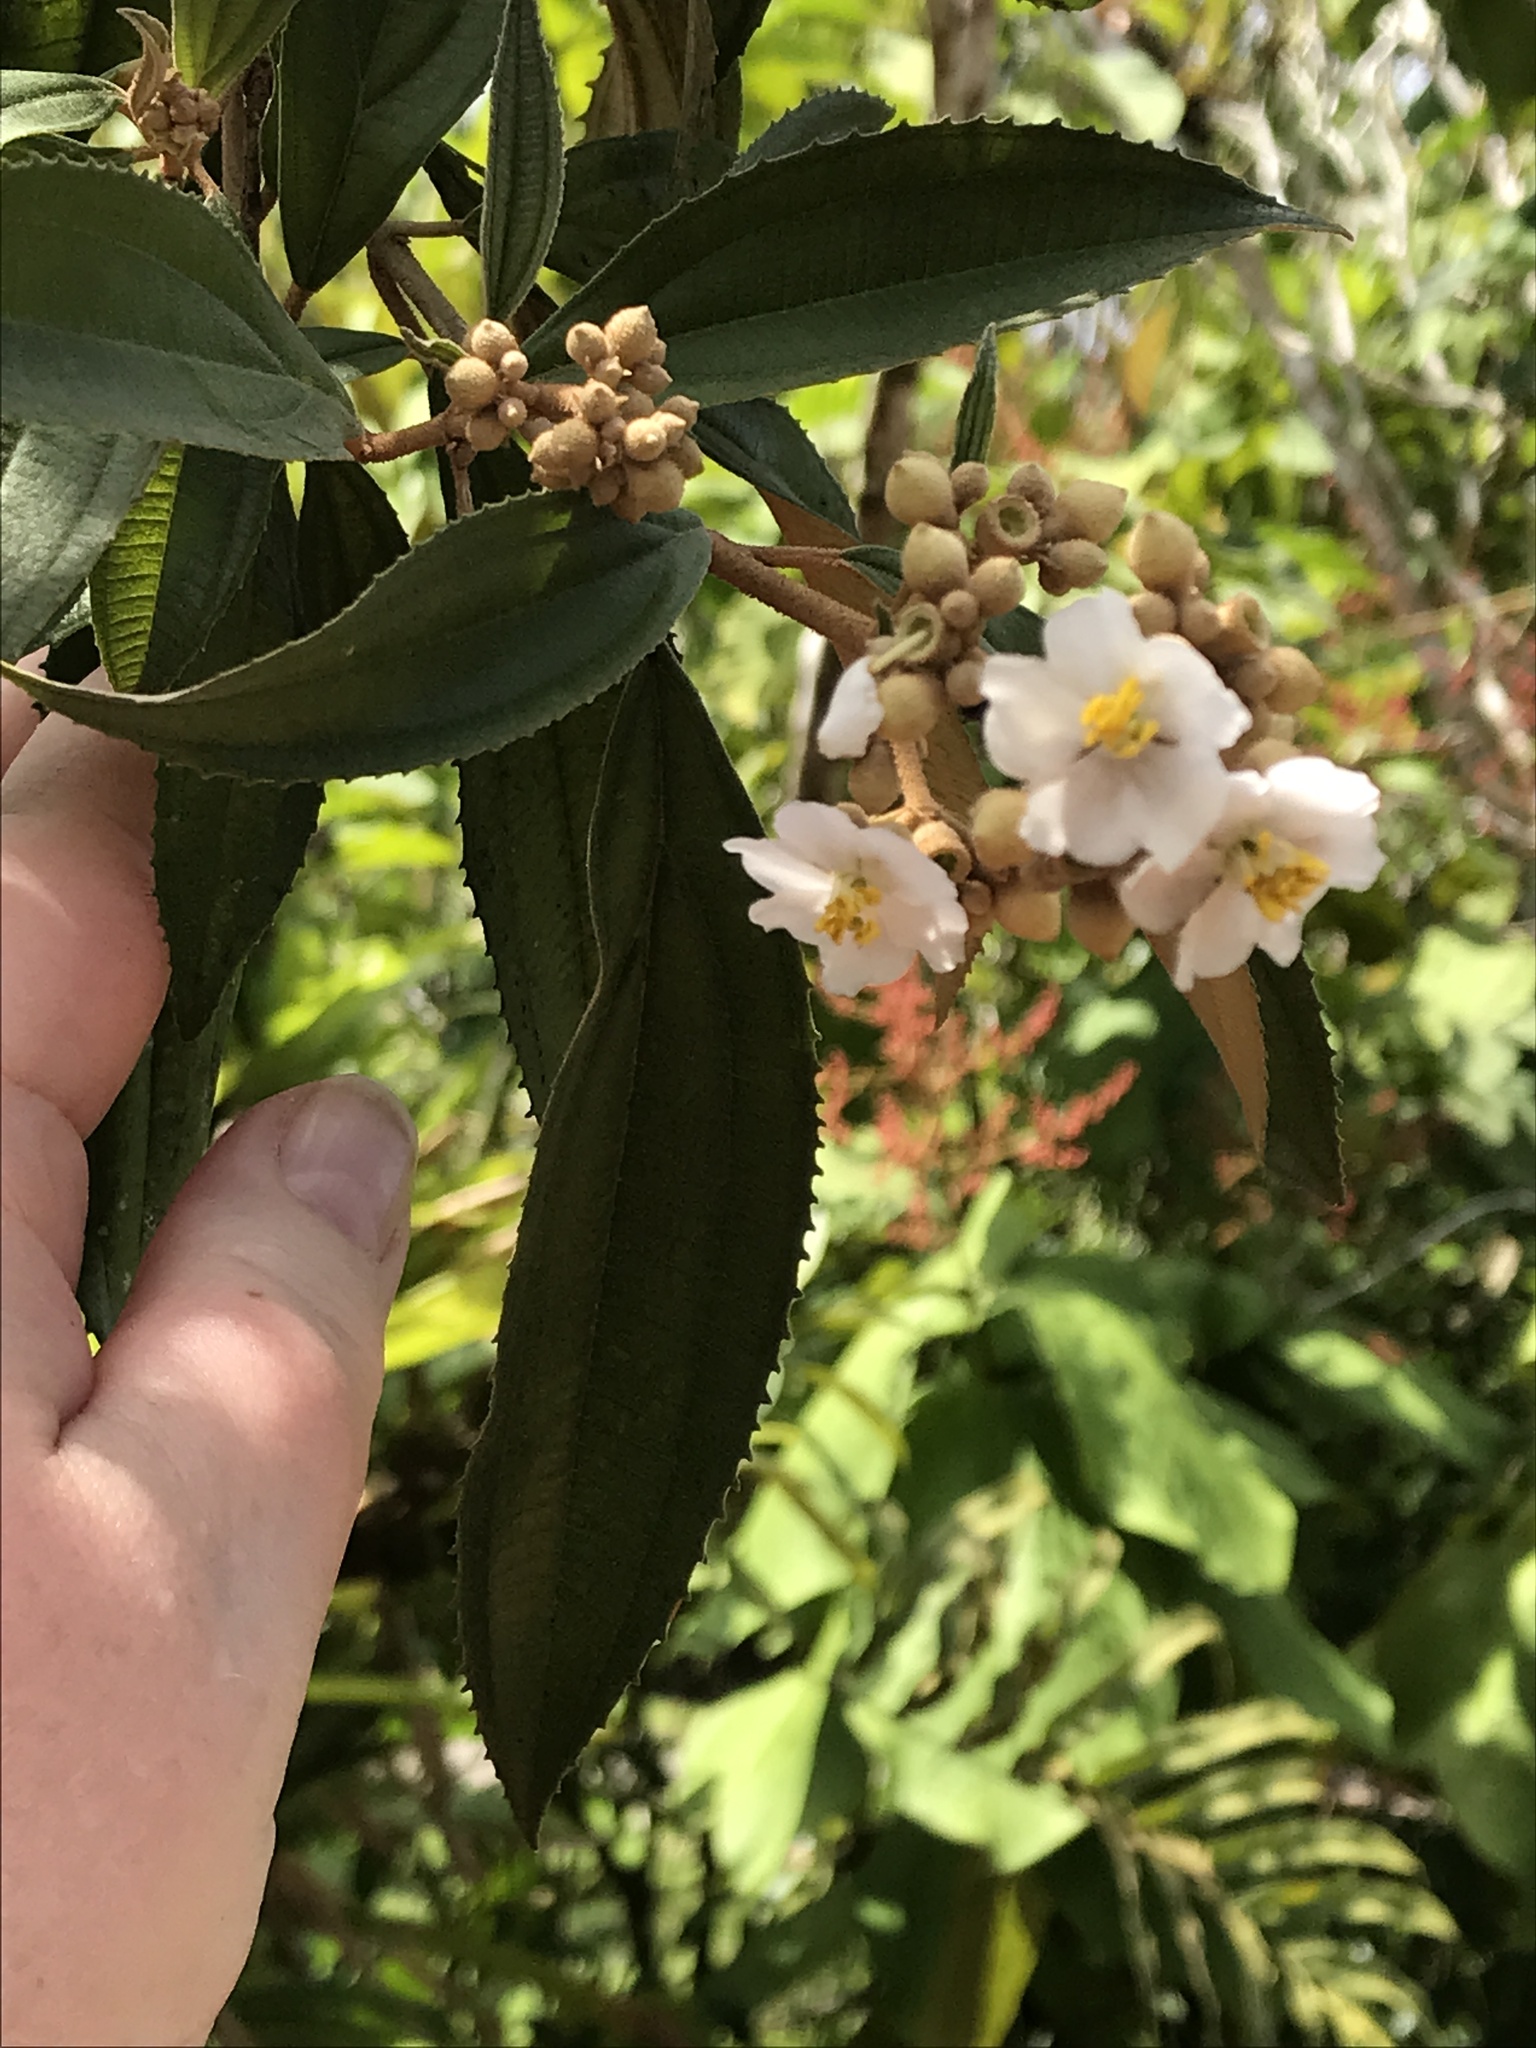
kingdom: Plantae
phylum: Tracheophyta
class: Magnoliopsida
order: Myrtales
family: Melastomataceae
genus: Miconia
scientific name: Miconia xalapensis
